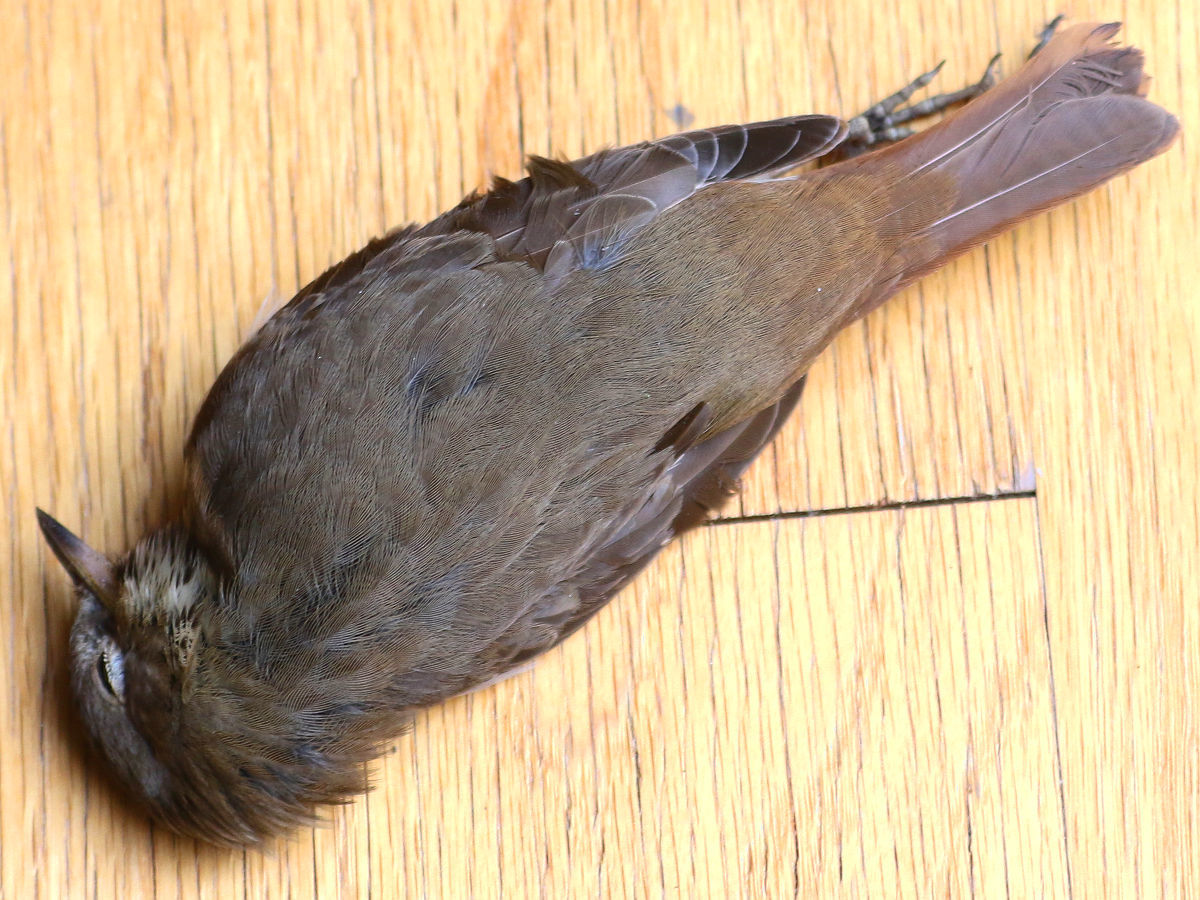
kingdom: Animalia
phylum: Chordata
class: Aves
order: Passeriformes
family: Turdidae
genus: Catharus
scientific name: Catharus guttatus
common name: Hermit thrush
